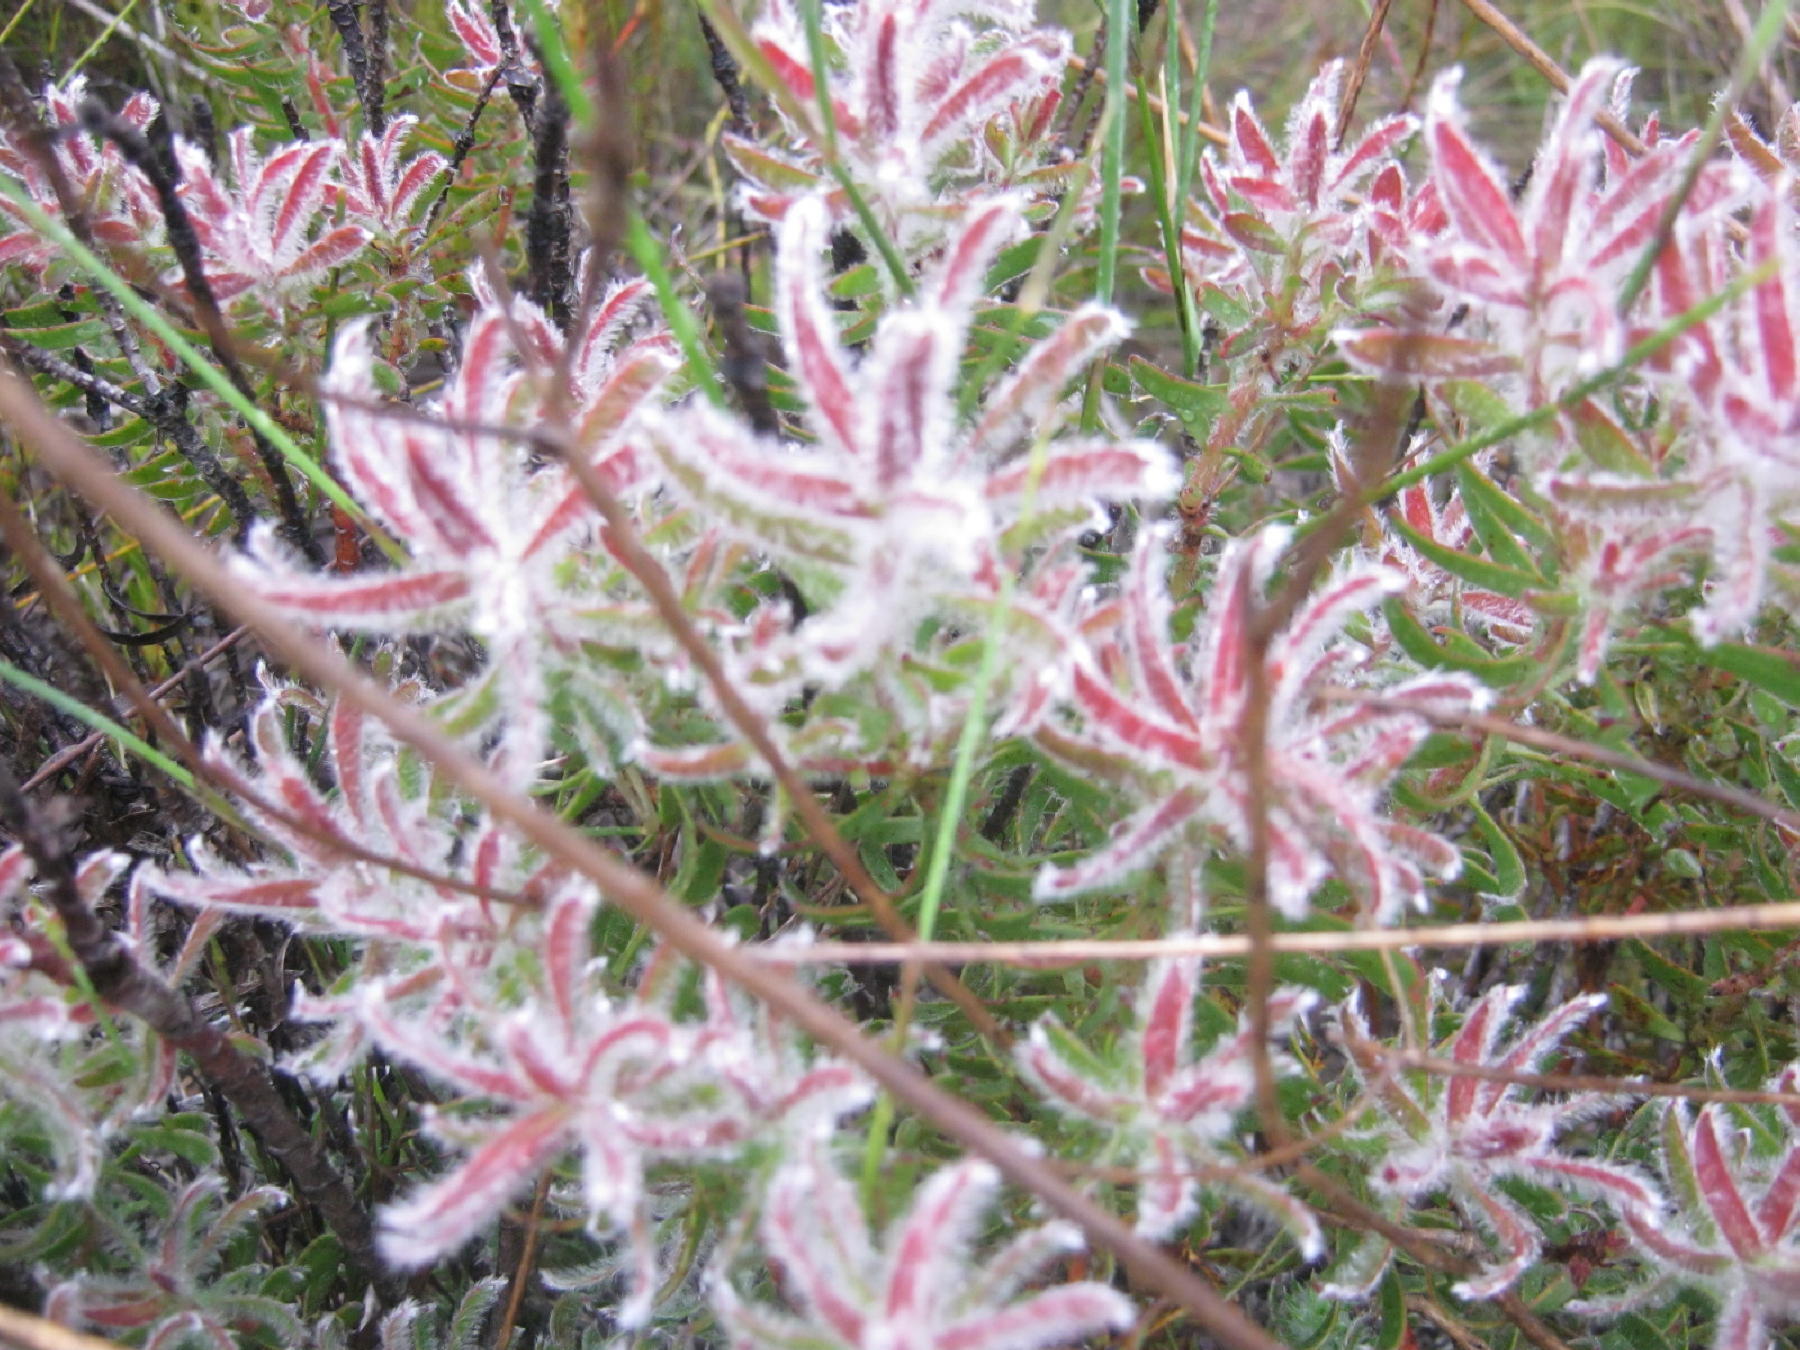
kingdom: Plantae
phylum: Tracheophyta
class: Magnoliopsida
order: Proteales
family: Proteaceae
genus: Leucadendron
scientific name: Leucadendron spissifolium
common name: Spear-leaf conebush
